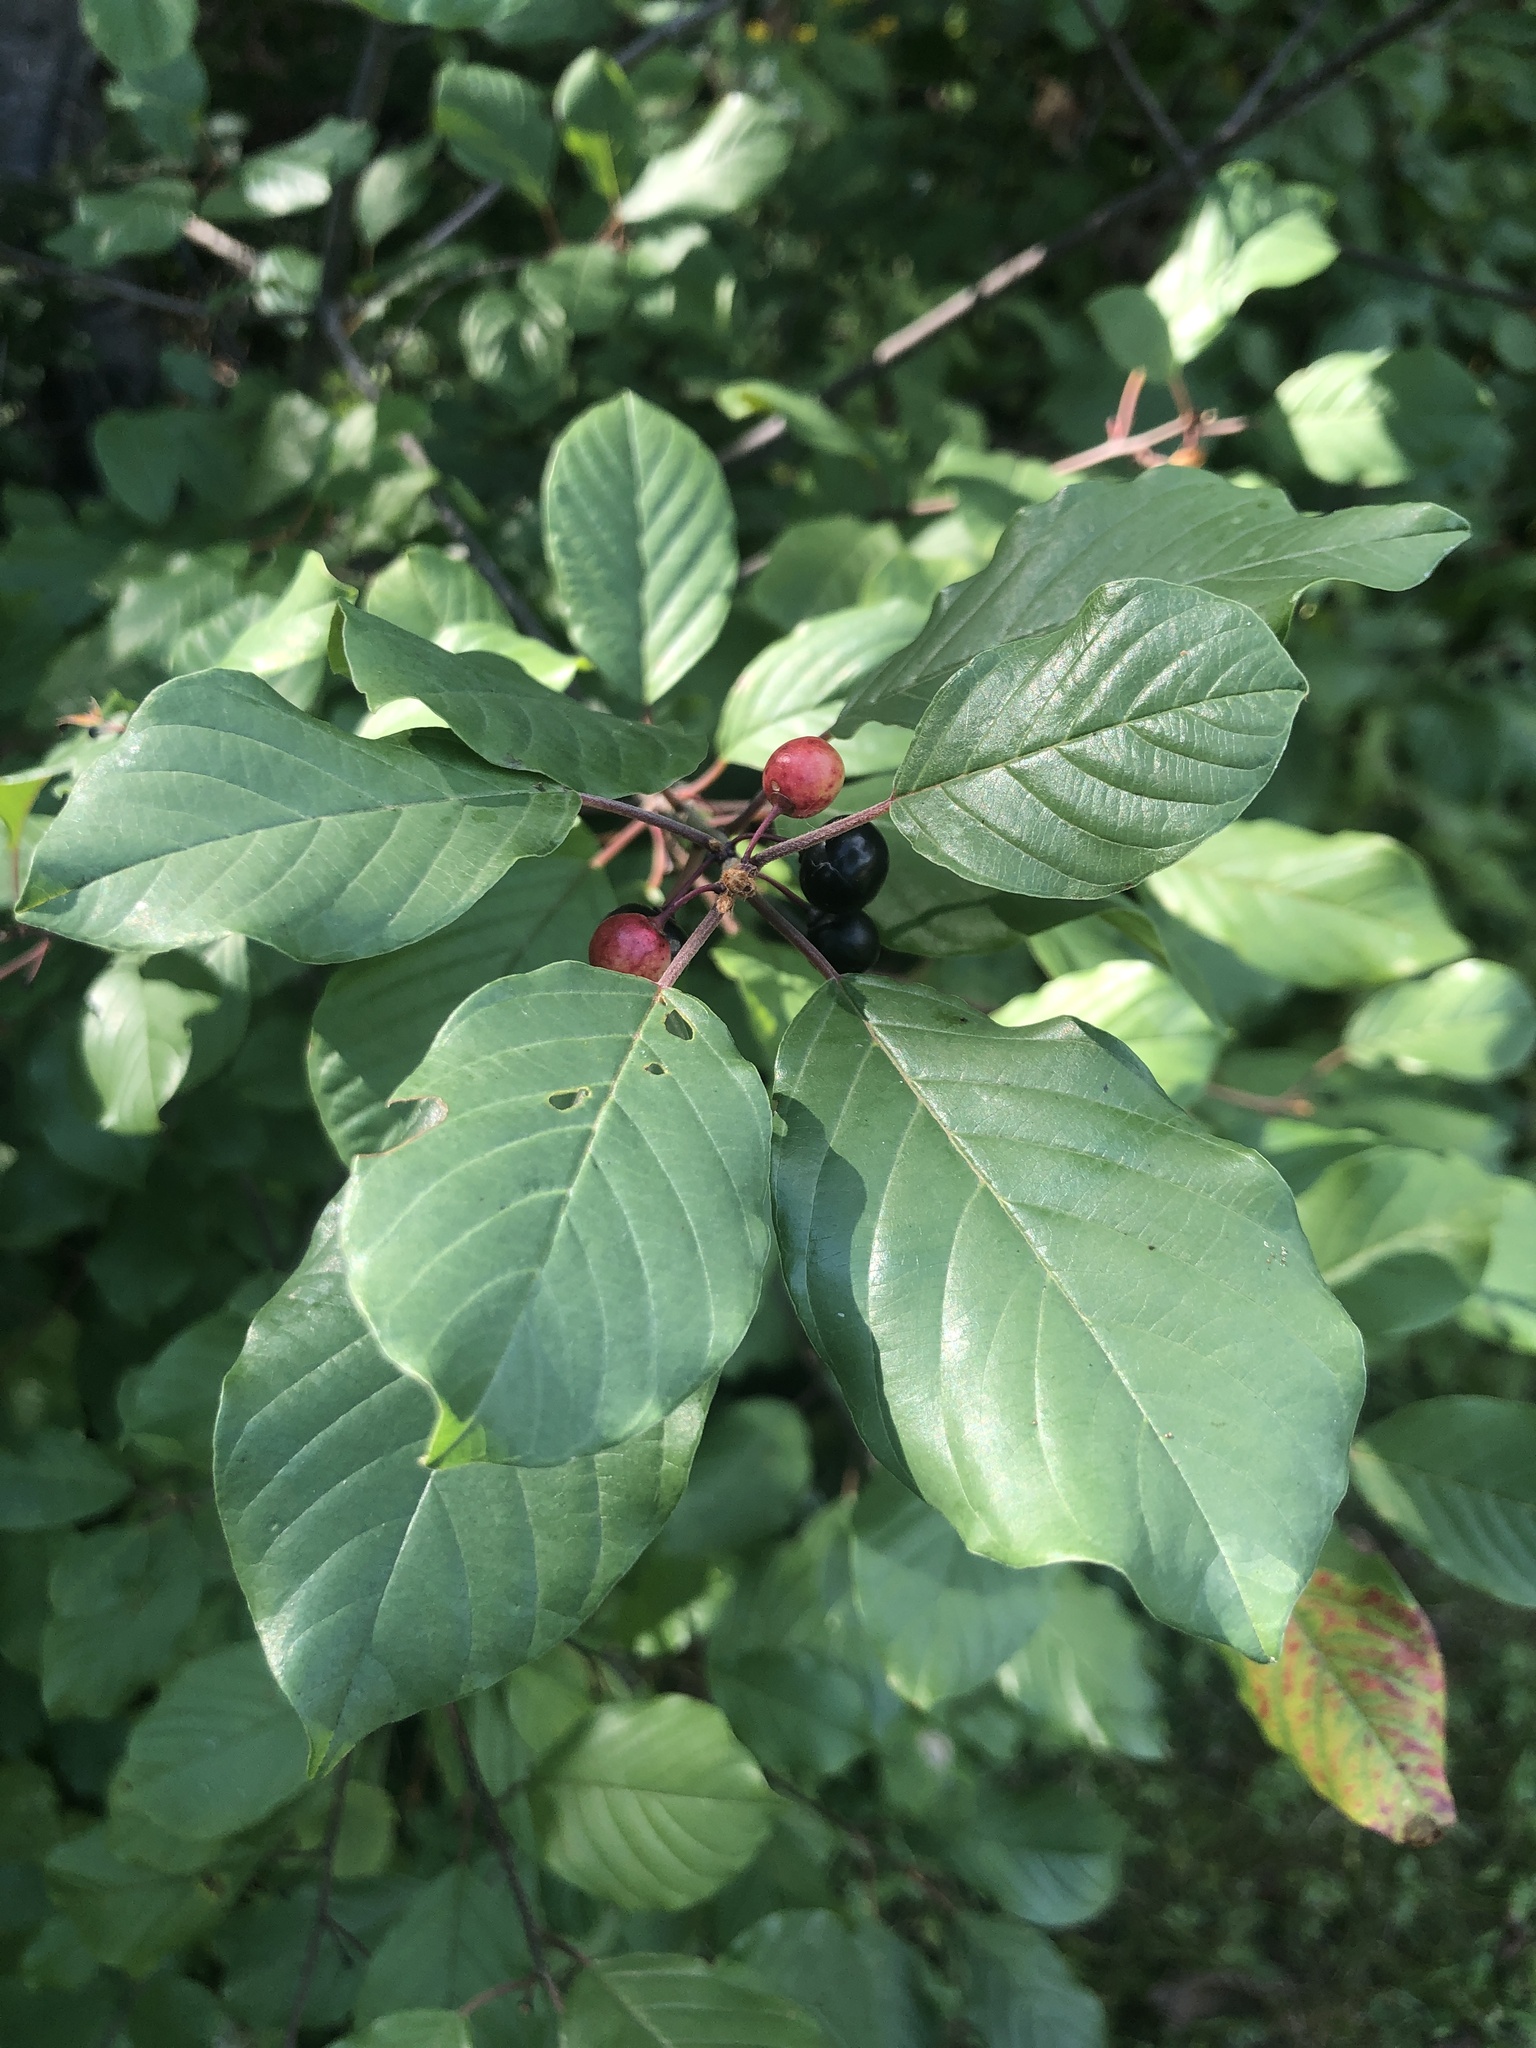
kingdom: Plantae
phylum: Tracheophyta
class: Magnoliopsida
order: Rosales
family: Rhamnaceae
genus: Frangula
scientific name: Frangula alnus
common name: Alder buckthorn
